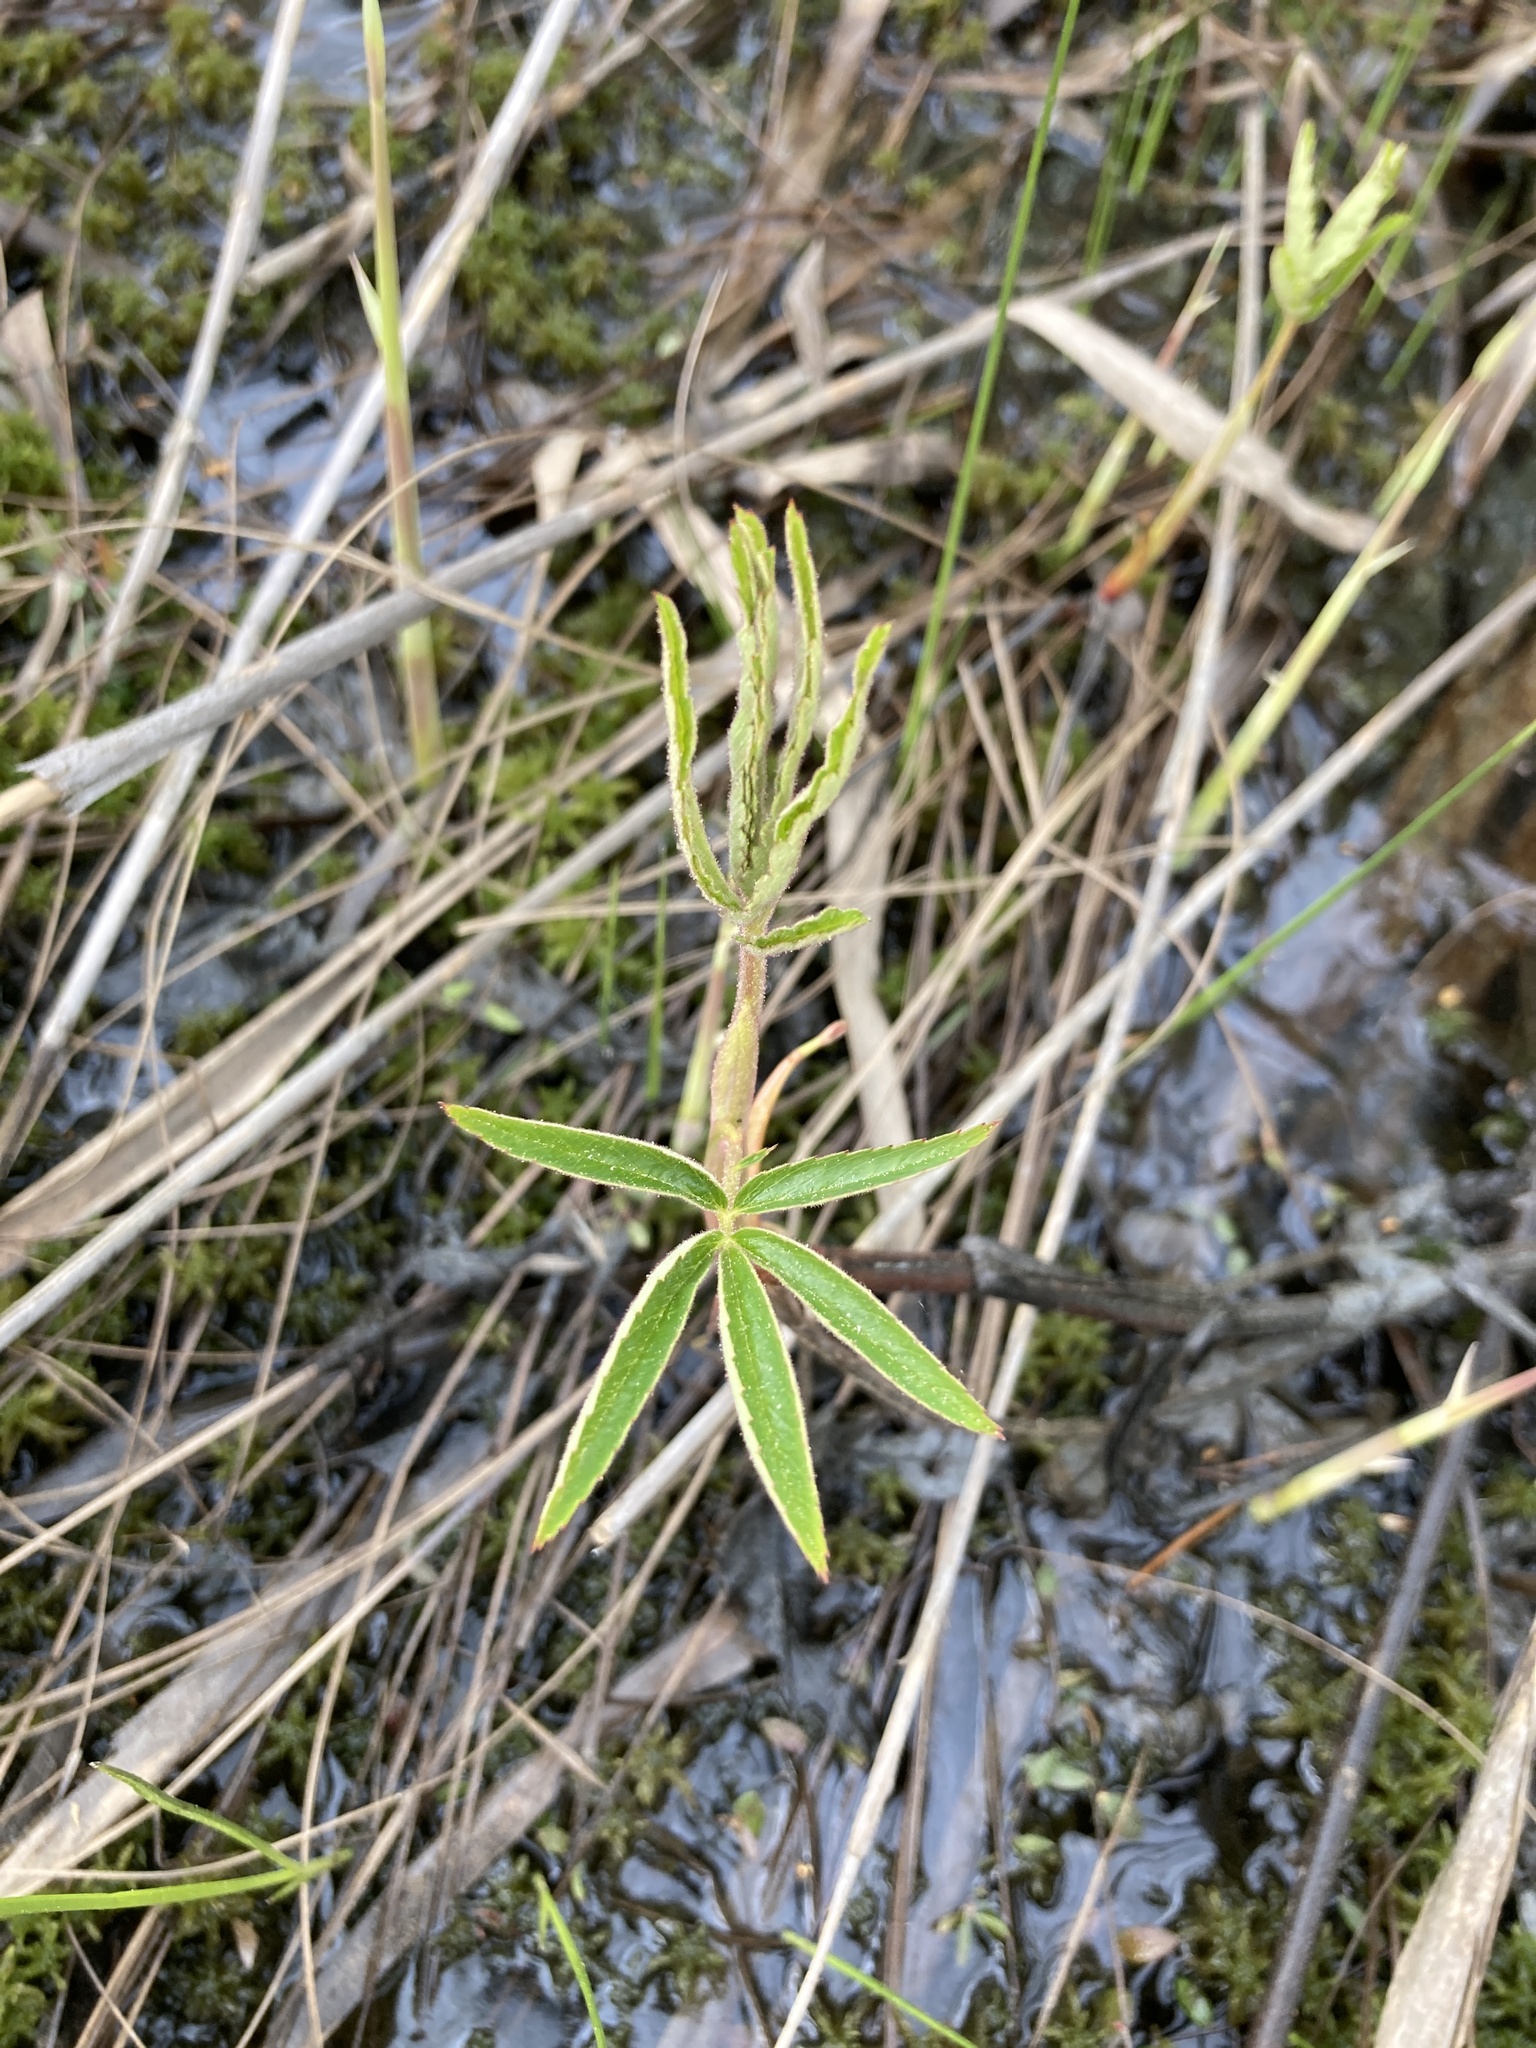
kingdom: Plantae
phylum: Tracheophyta
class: Magnoliopsida
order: Rosales
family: Rosaceae
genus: Comarum
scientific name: Comarum palustre
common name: Marsh cinquefoil
